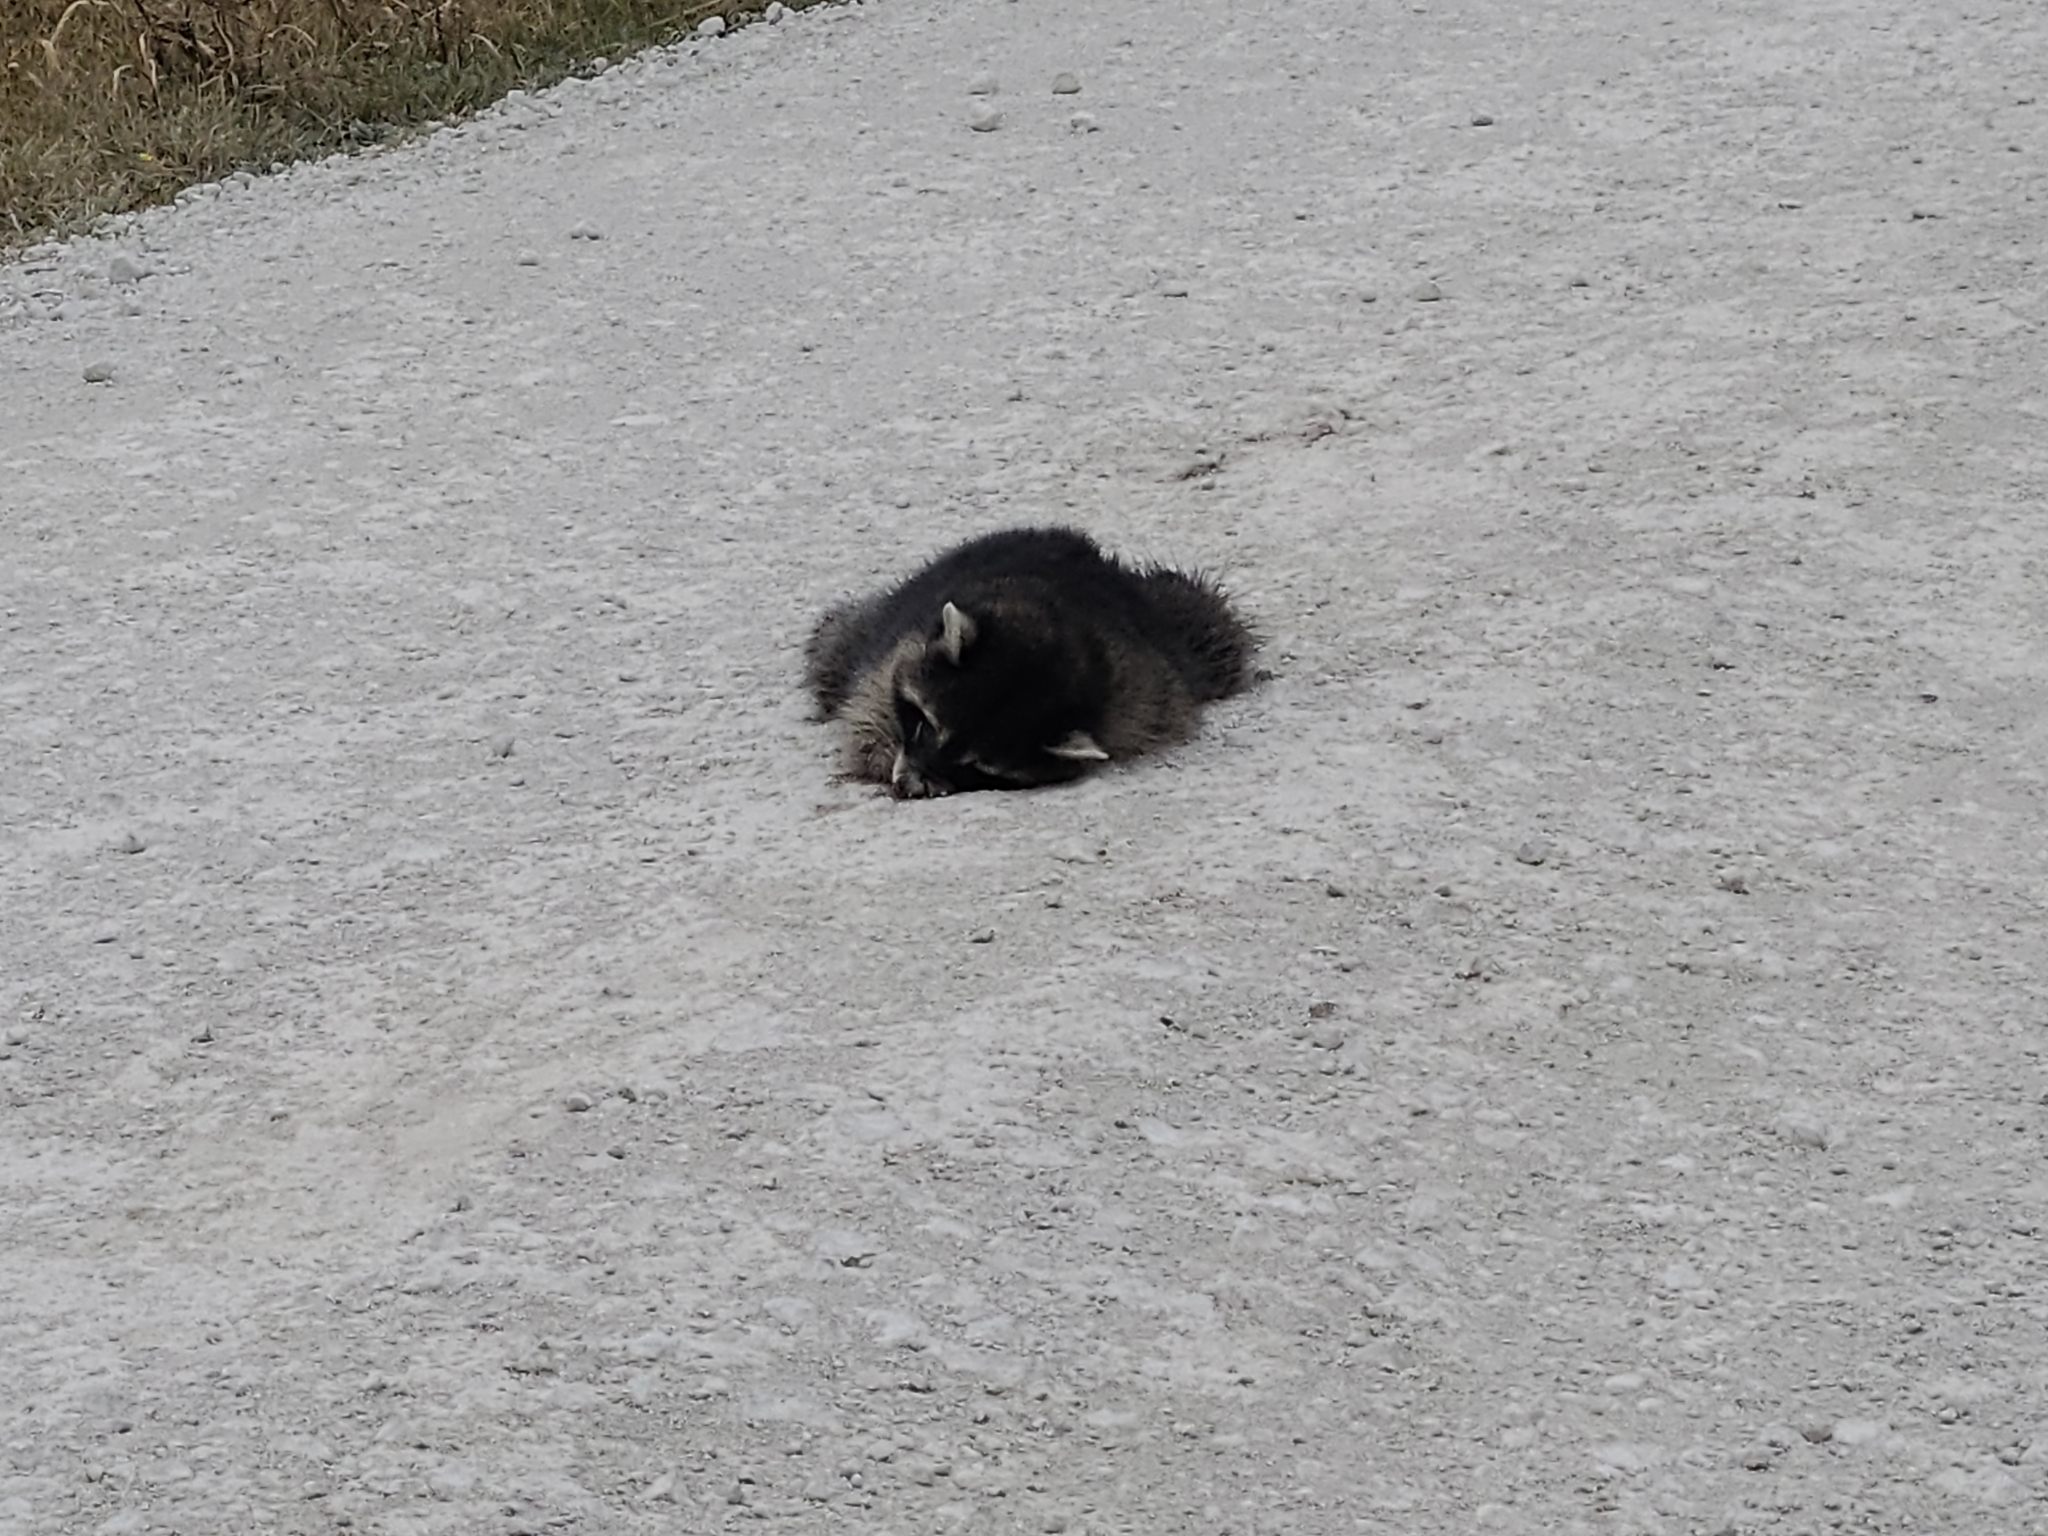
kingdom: Animalia
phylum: Chordata
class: Mammalia
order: Carnivora
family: Procyonidae
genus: Procyon
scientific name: Procyon lotor
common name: Raccoon
